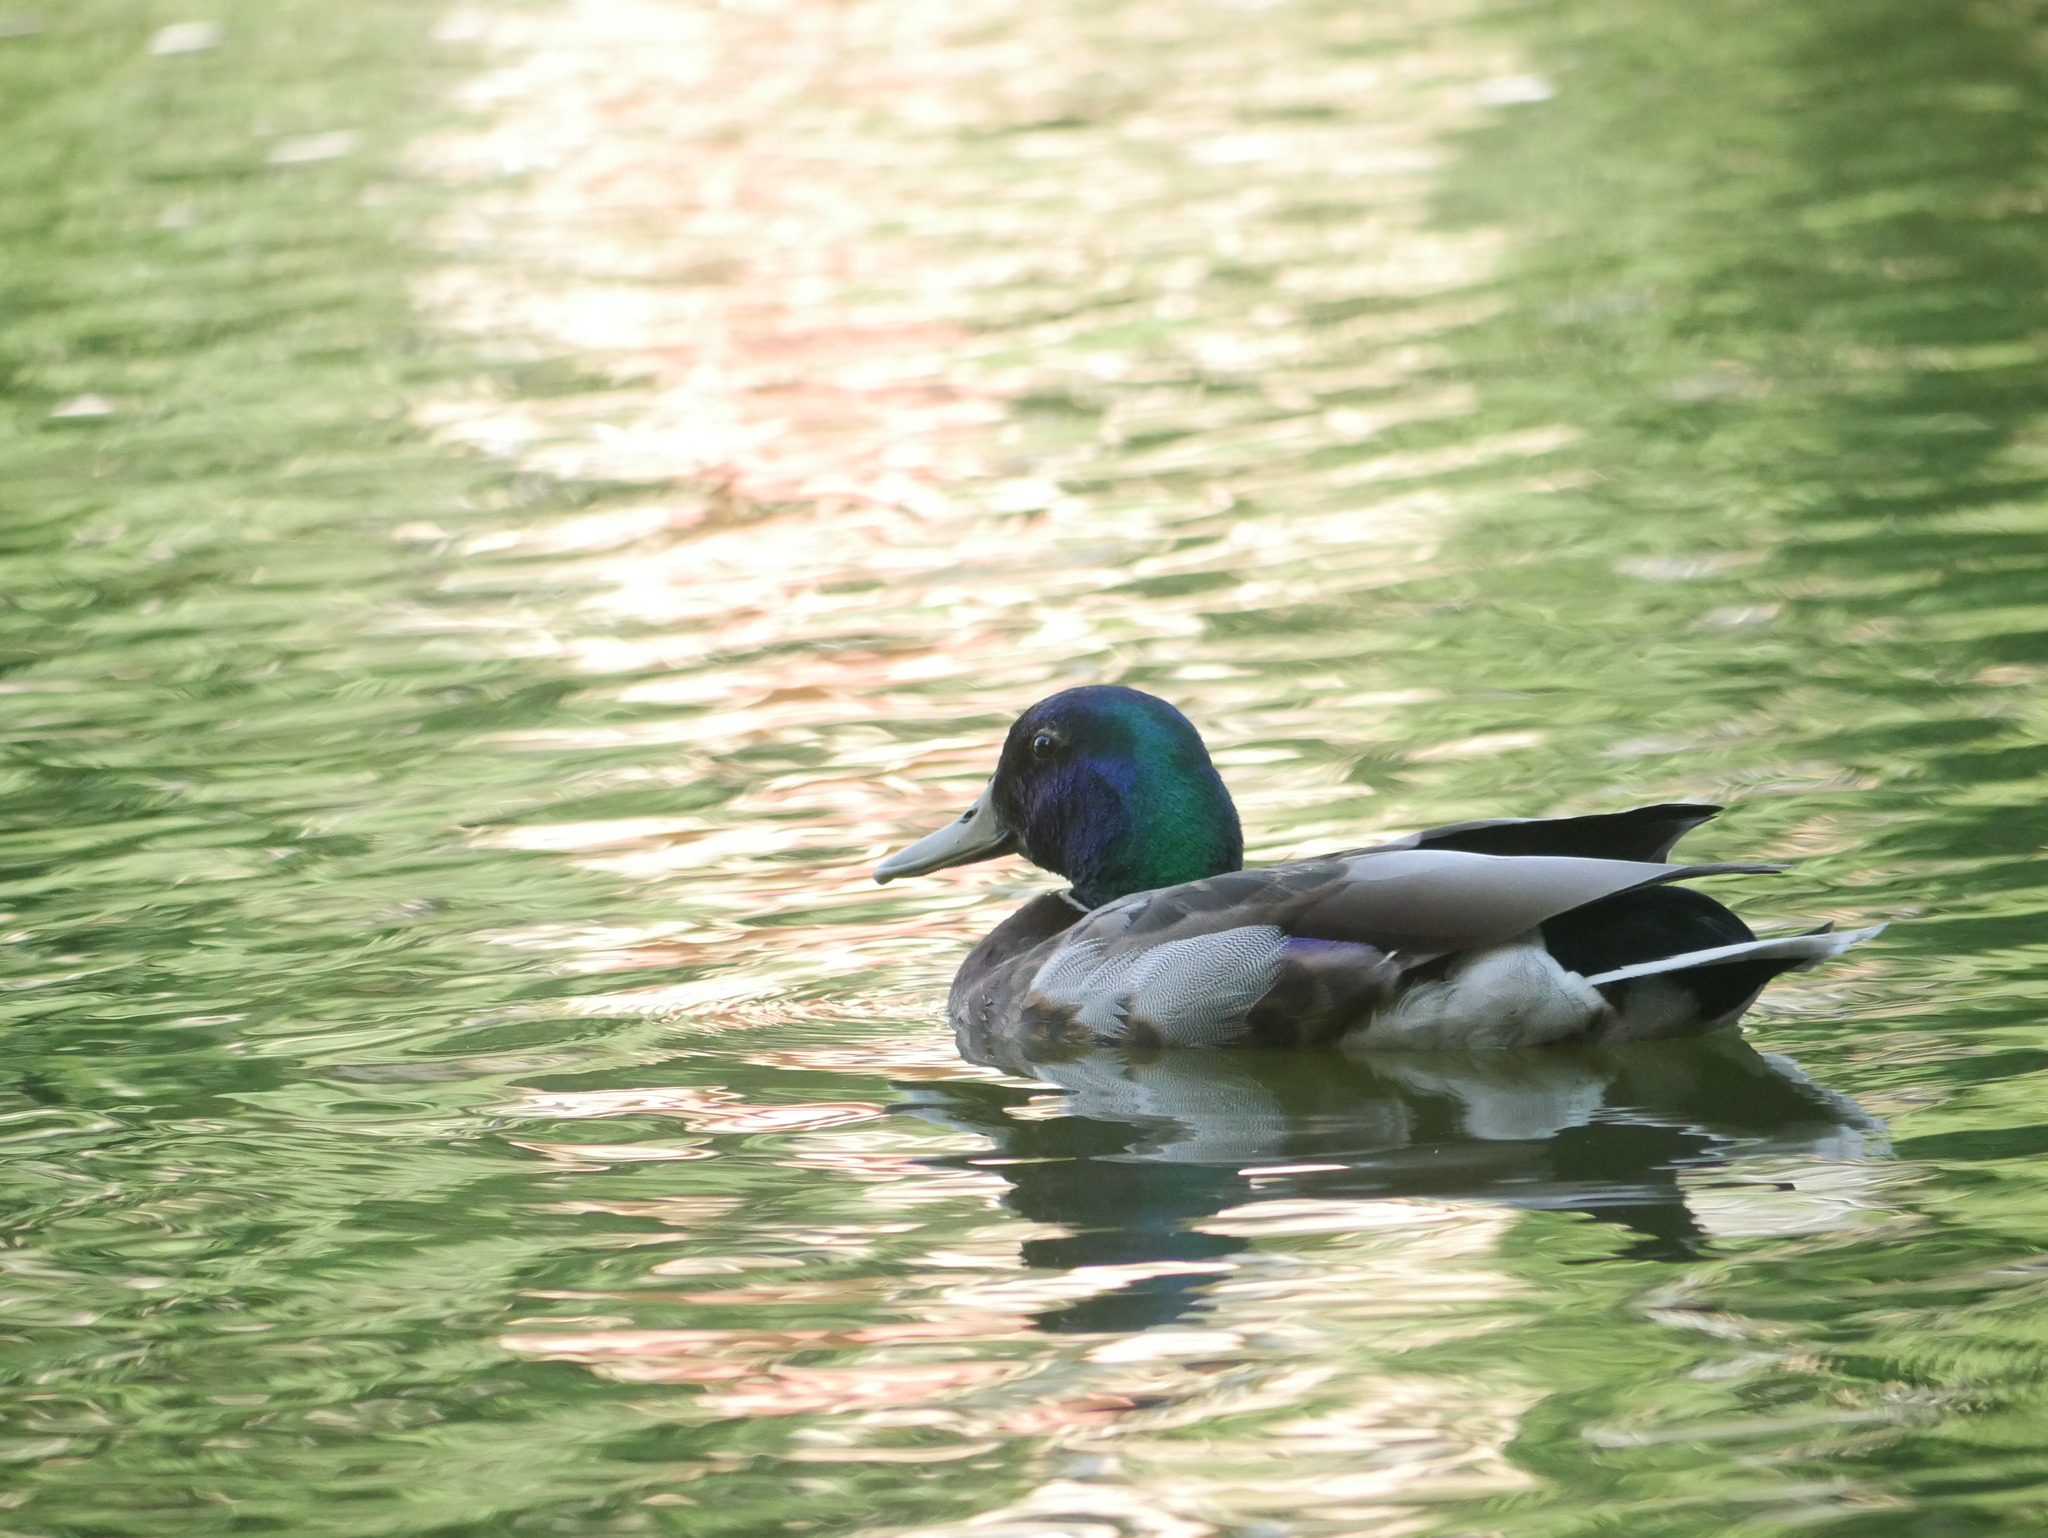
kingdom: Animalia
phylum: Chordata
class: Aves
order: Anseriformes
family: Anatidae
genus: Anas
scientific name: Anas platyrhynchos
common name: Mallard
